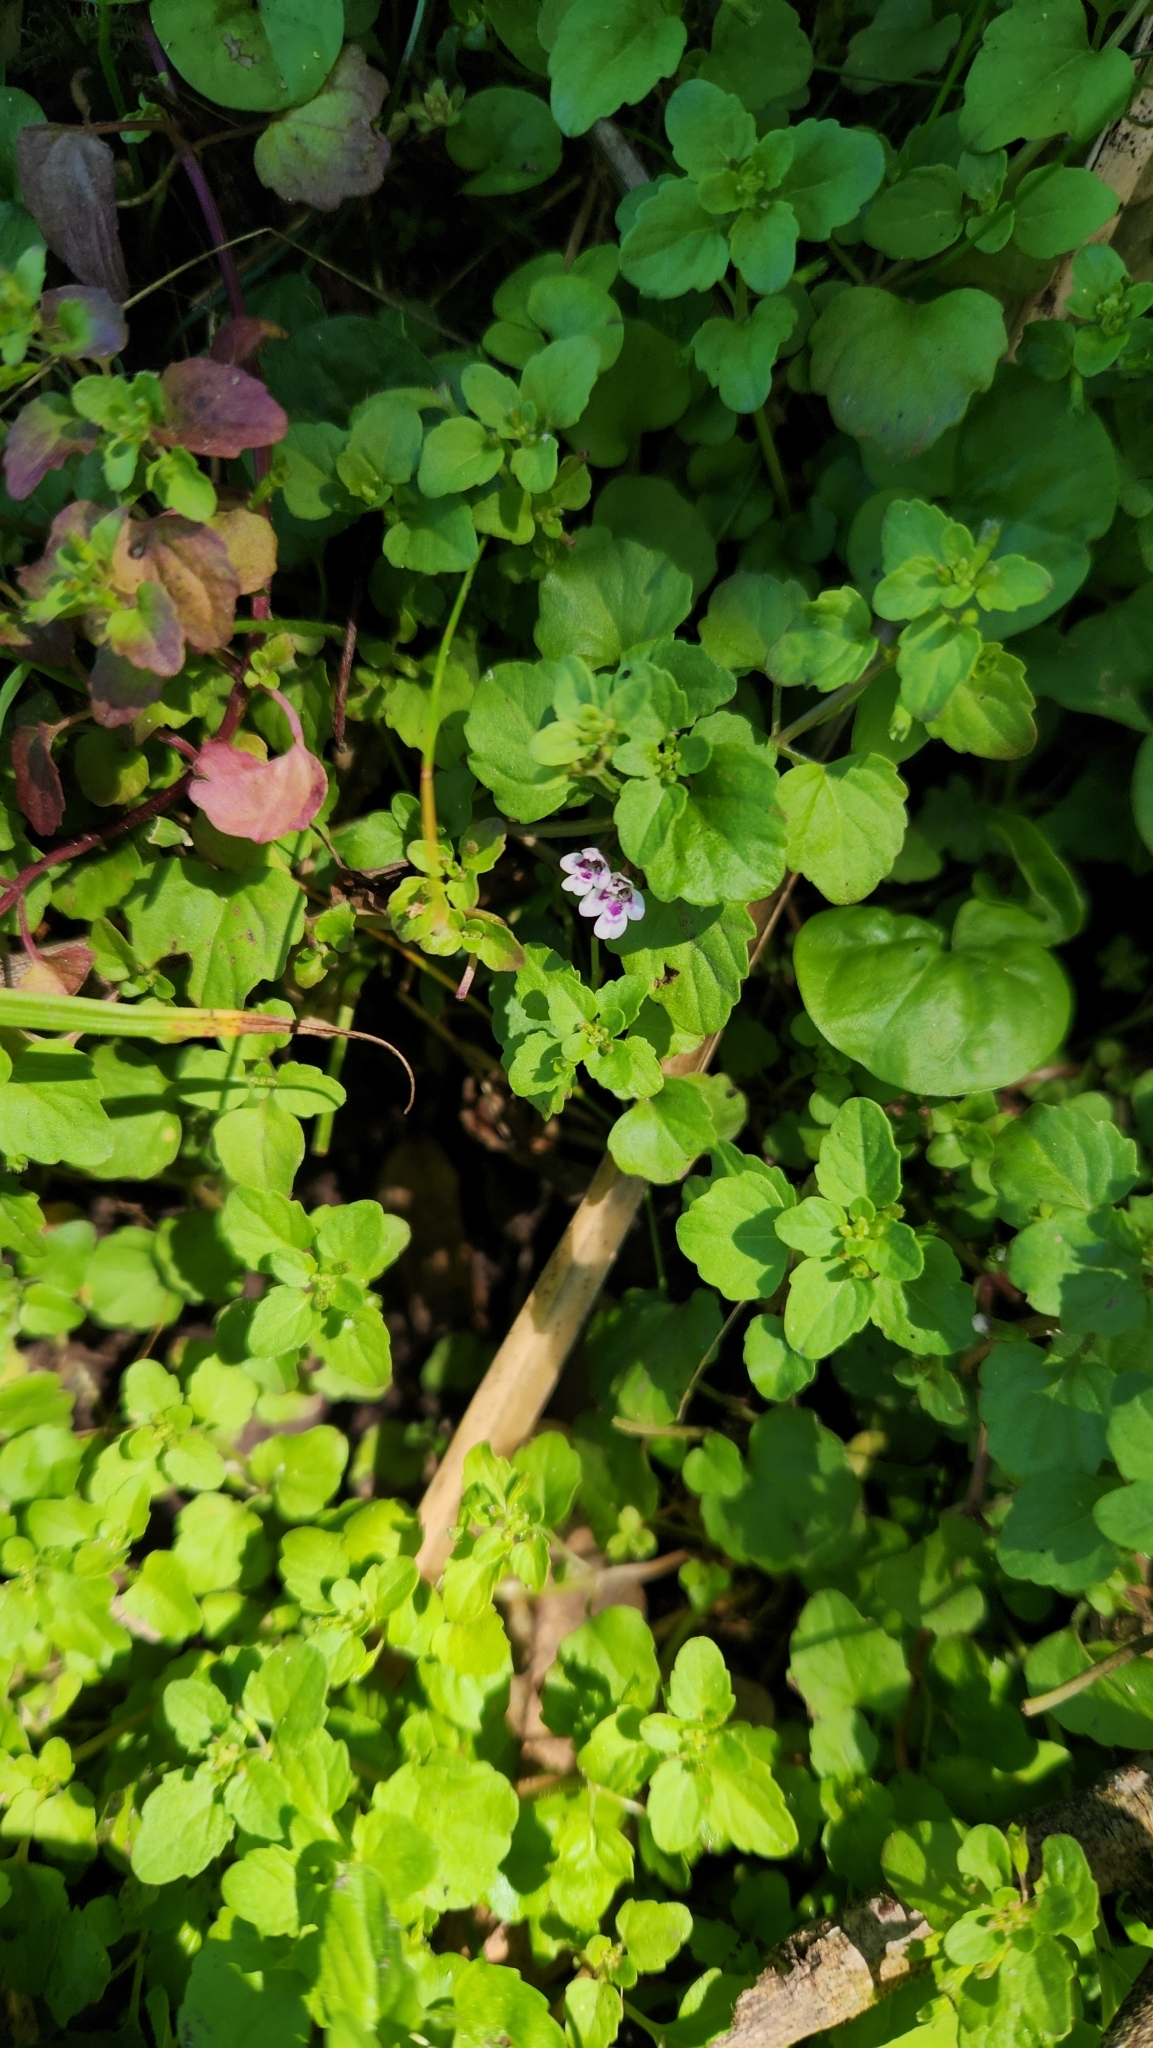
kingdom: Plantae
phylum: Tracheophyta
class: Magnoliopsida
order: Lamiales
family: Lamiaceae
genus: Clinopodium
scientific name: Clinopodium brownei
